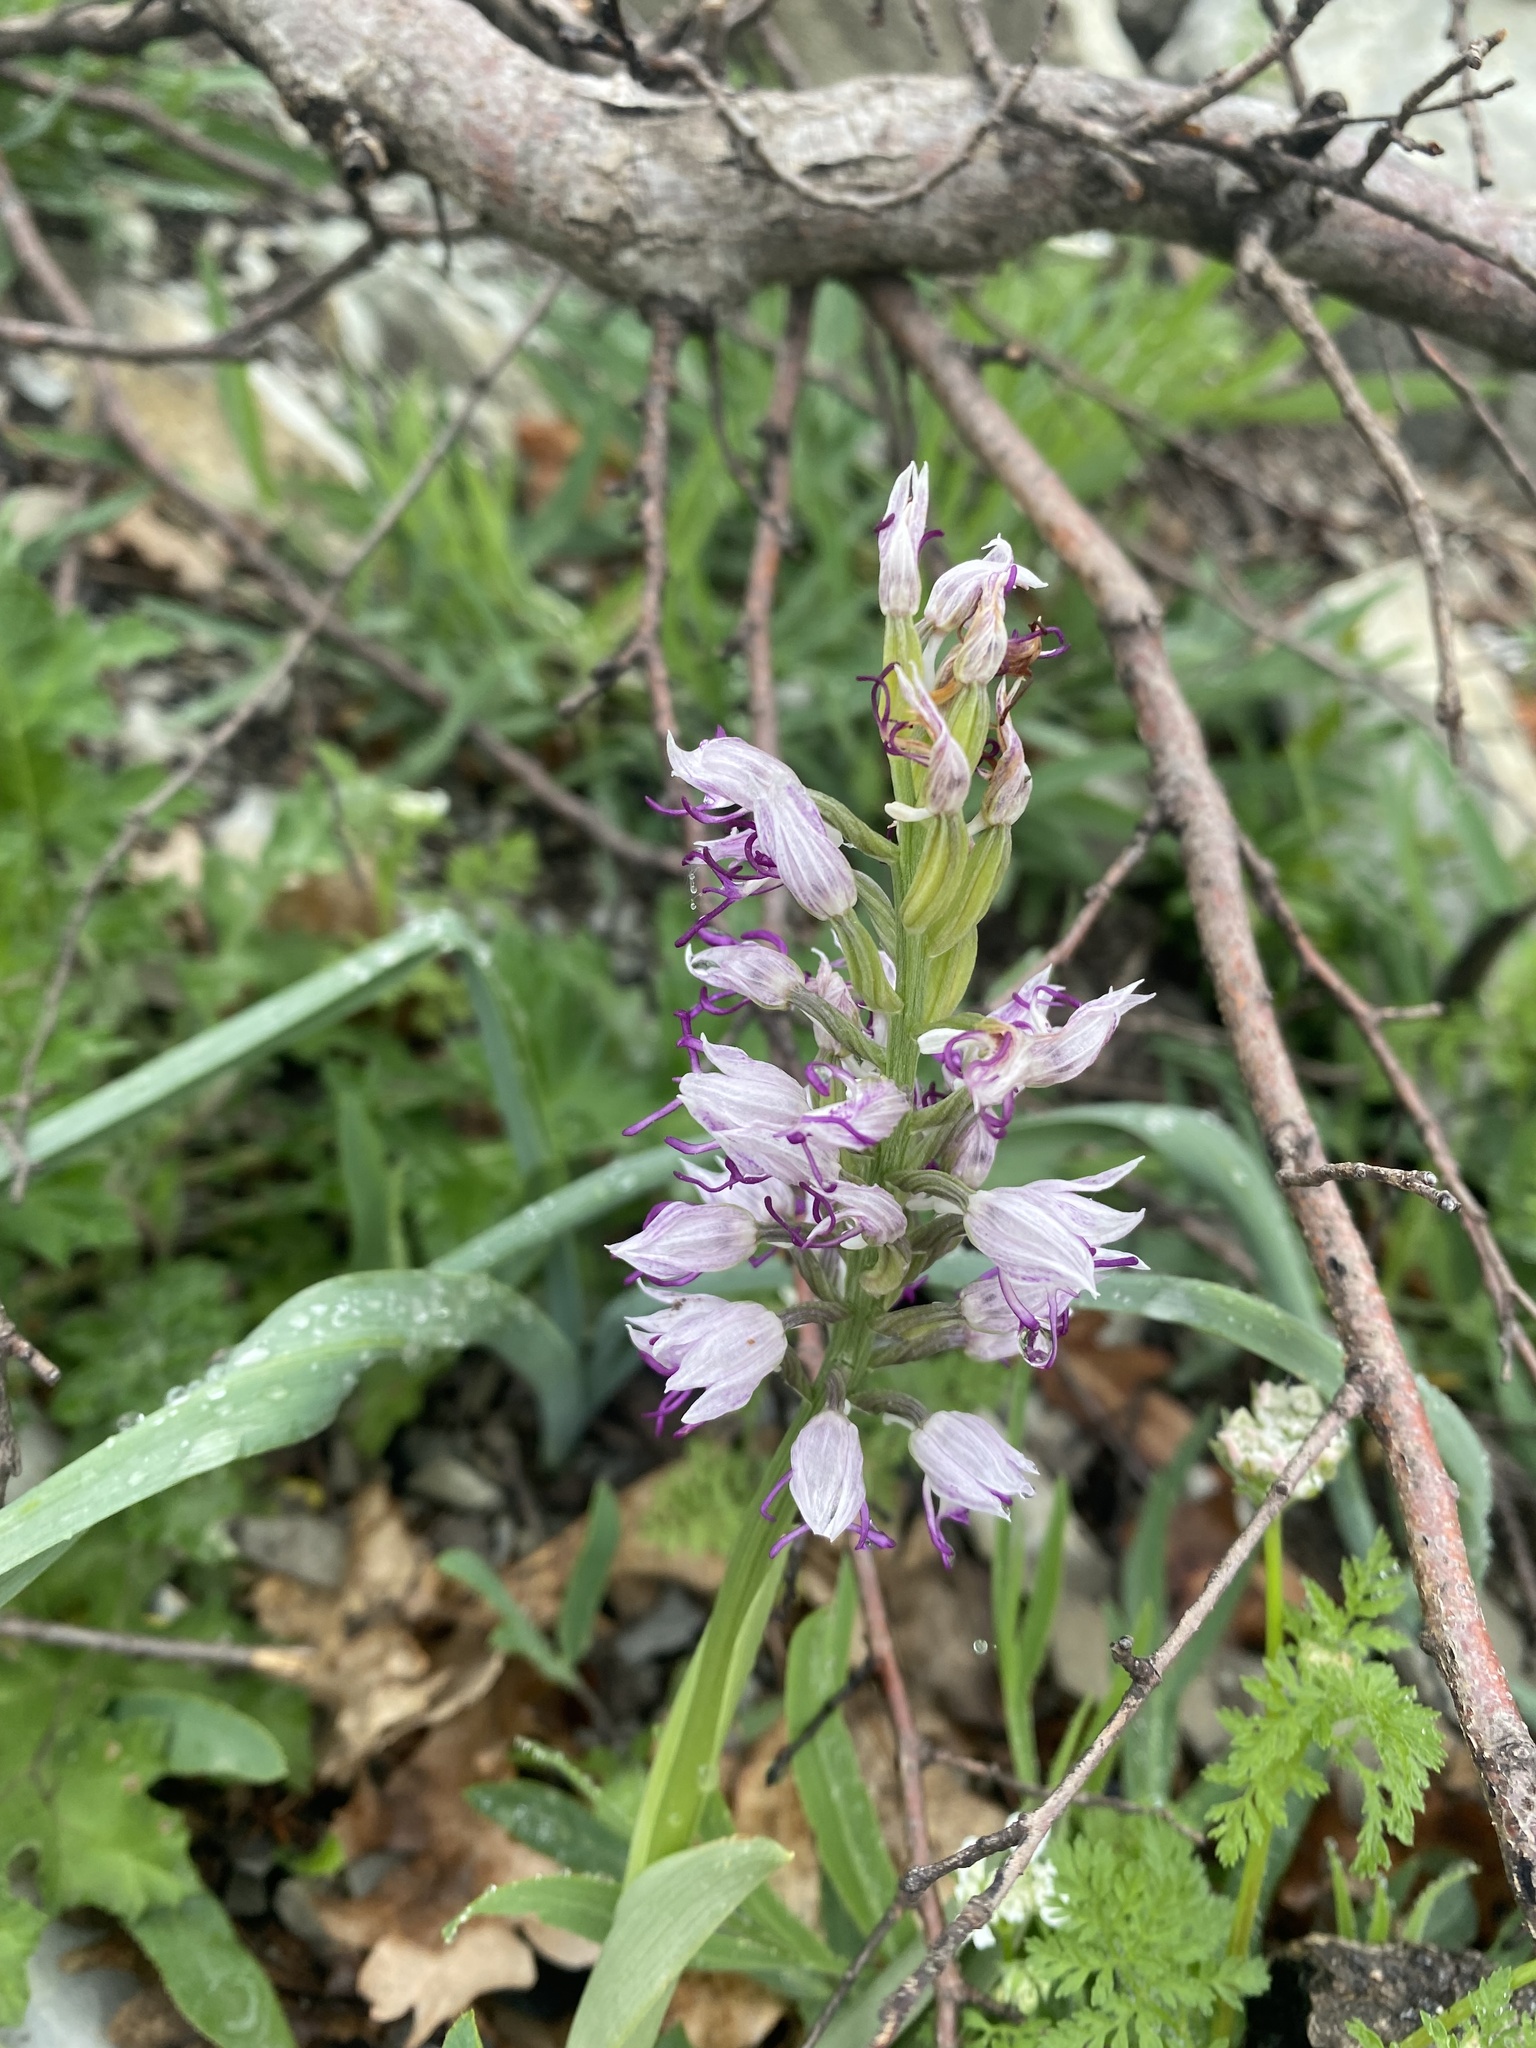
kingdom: Plantae
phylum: Tracheophyta
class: Liliopsida
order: Asparagales
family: Orchidaceae
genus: Orchis
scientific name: Orchis simia
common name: Monkey orchid
